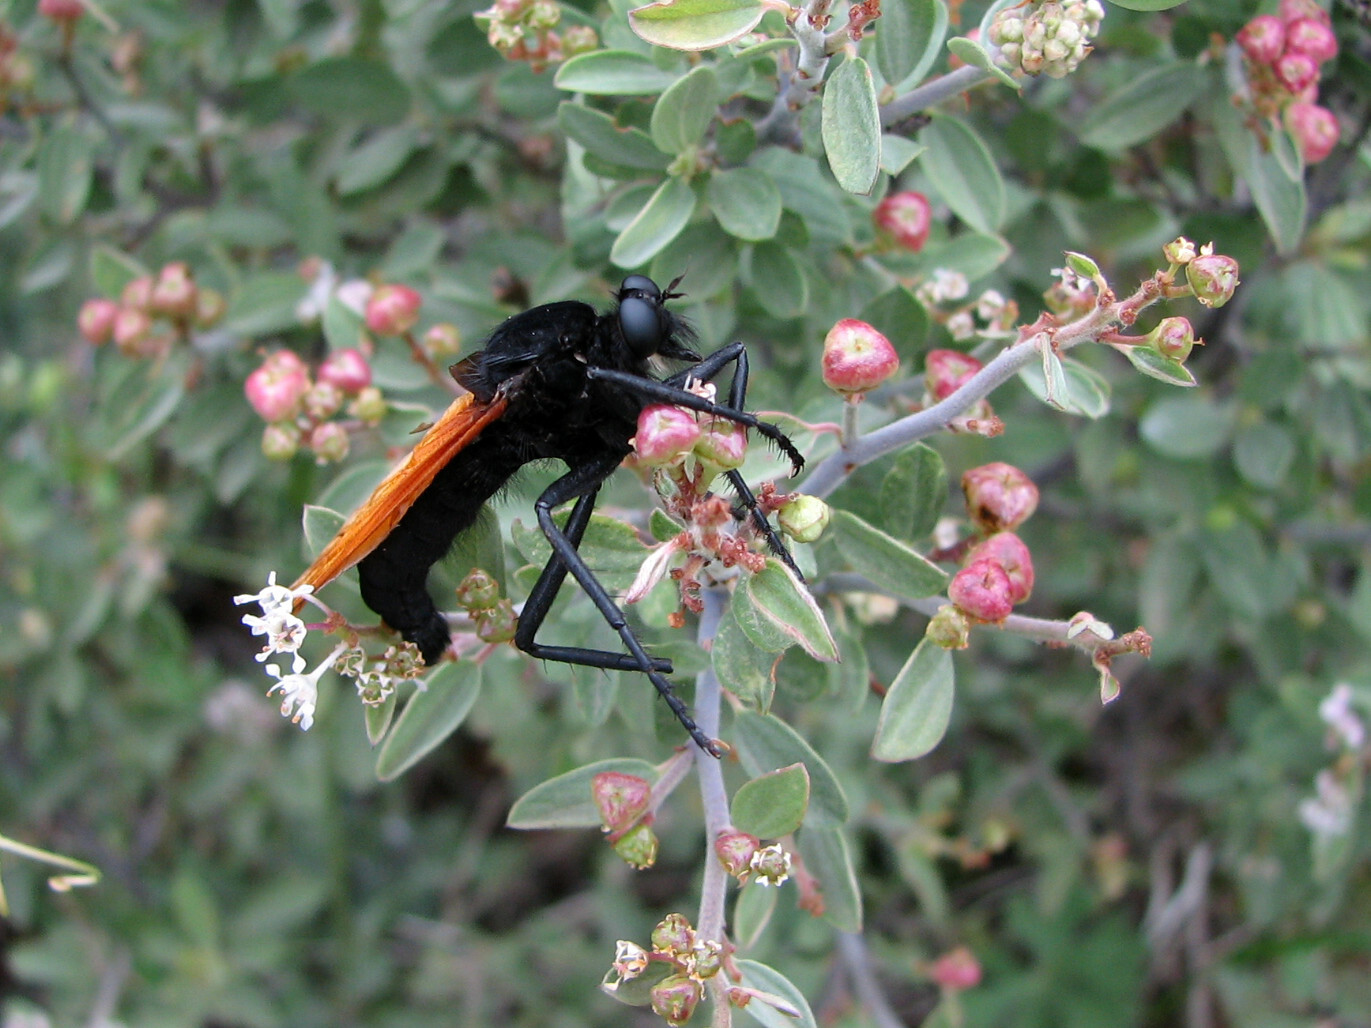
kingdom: Animalia
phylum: Arthropoda
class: Insecta
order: Diptera
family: Asilidae
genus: Wilcoxius
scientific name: Wilcoxius mydas
